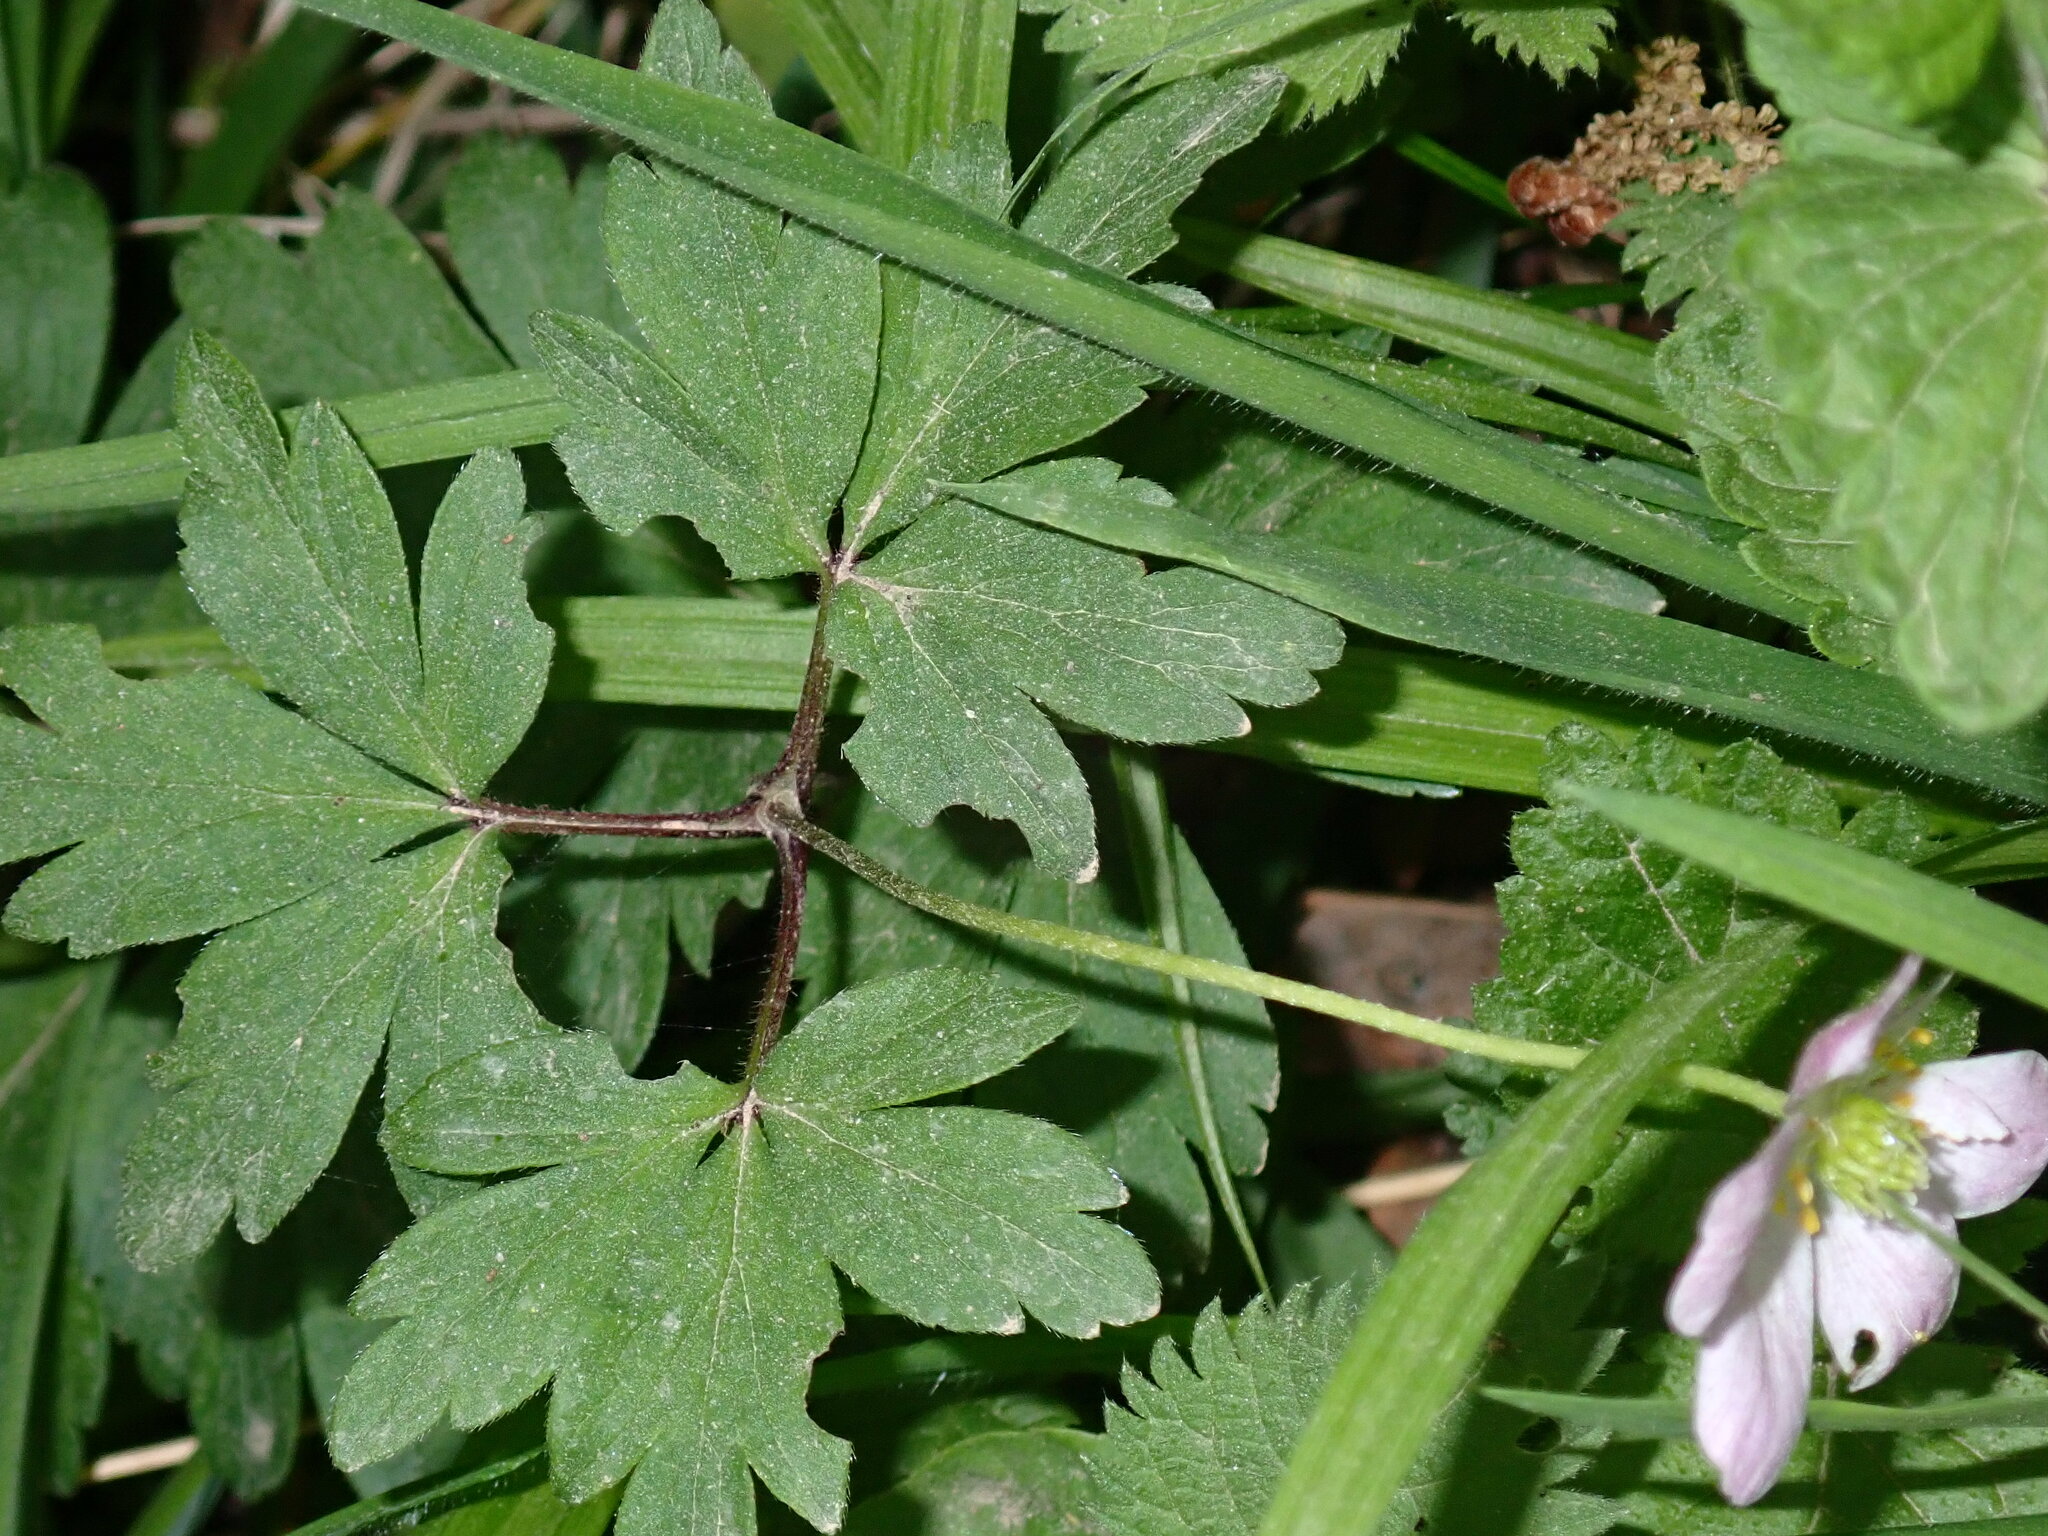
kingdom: Plantae
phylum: Tracheophyta
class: Magnoliopsida
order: Ranunculales
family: Ranunculaceae
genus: Anemone
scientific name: Anemone nemorosa
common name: Wood anemone
